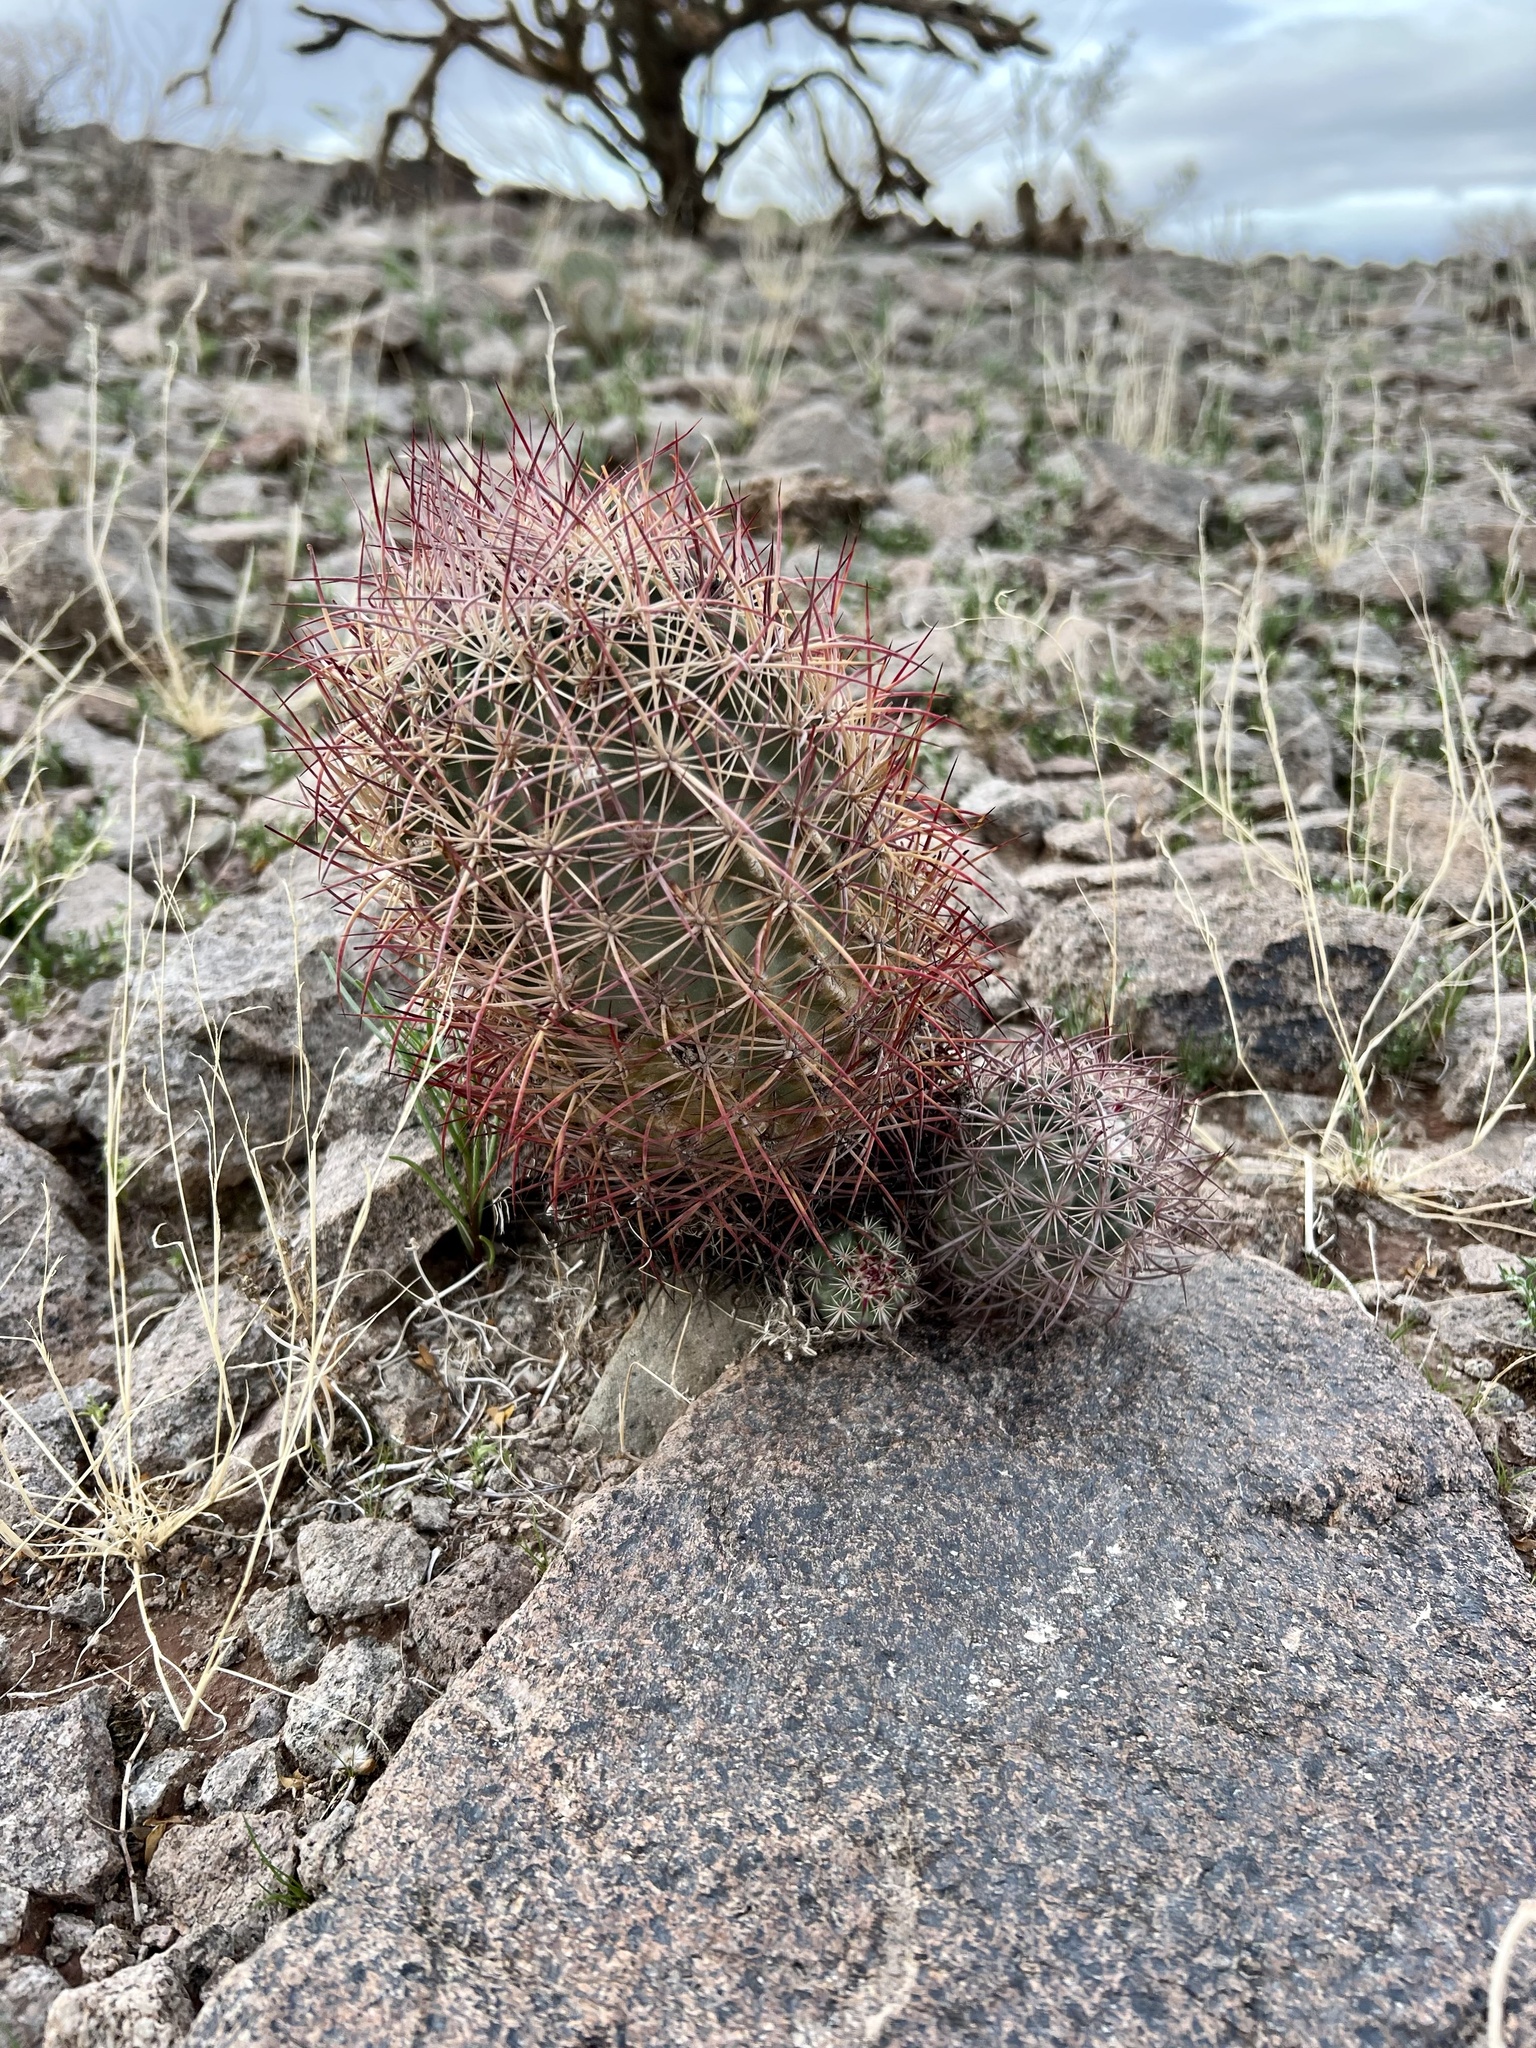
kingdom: Plantae
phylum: Tracheophyta
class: Magnoliopsida
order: Caryophyllales
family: Cactaceae
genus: Sclerocactus
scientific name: Sclerocactus johnsonii
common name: Eight-spine fishhook cactus
